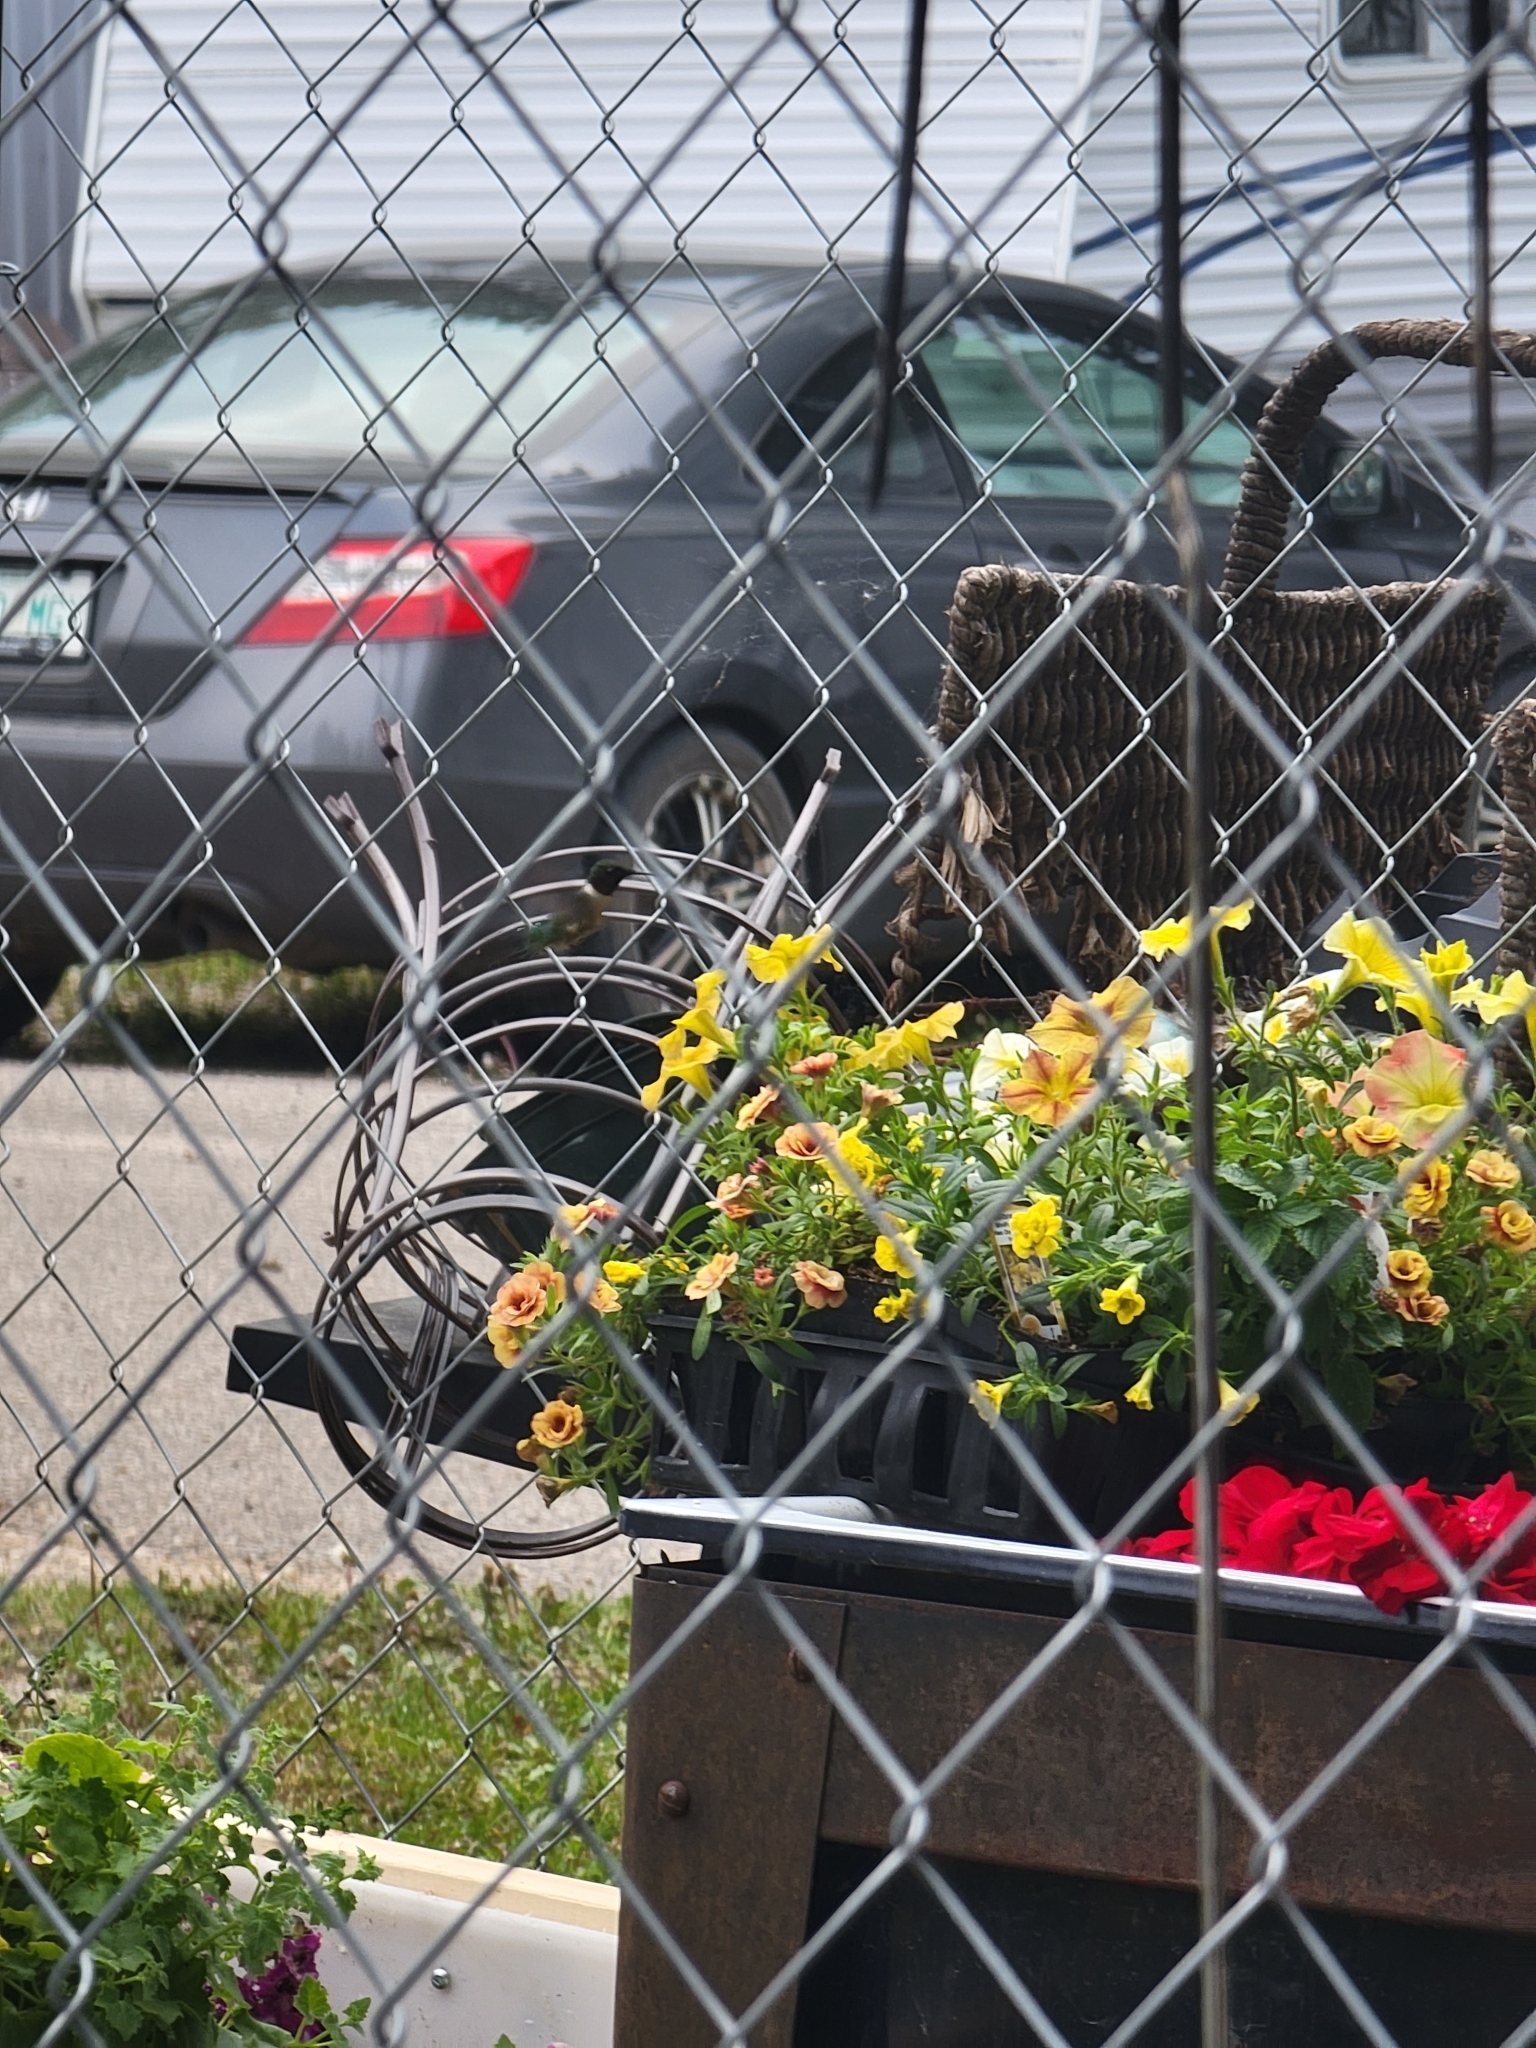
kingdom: Animalia
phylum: Chordata
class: Aves
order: Apodiformes
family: Trochilidae
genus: Archilochus
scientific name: Archilochus colubris
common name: Ruby-throated hummingbird
